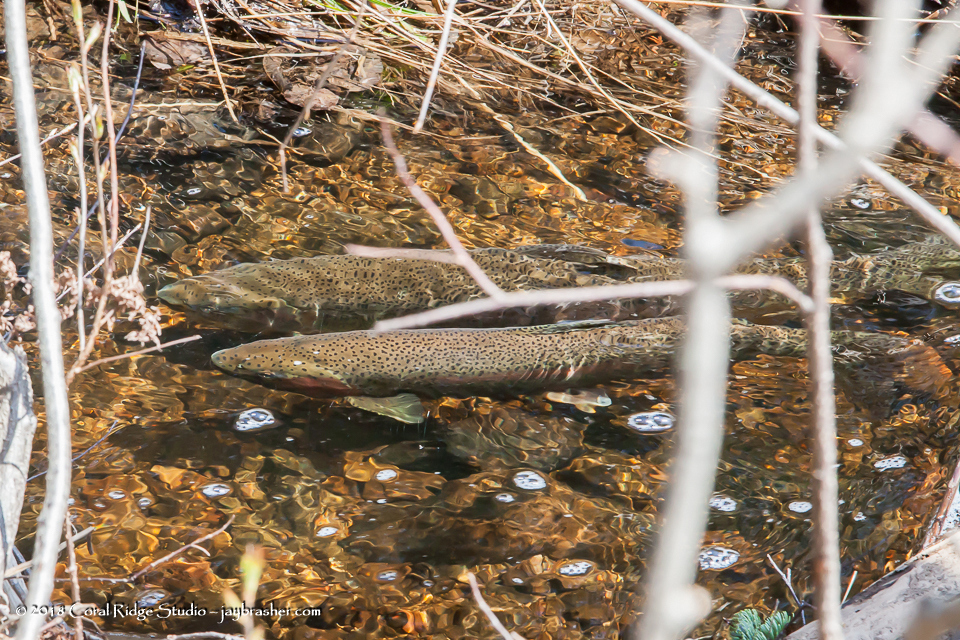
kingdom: Animalia
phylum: Chordata
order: Salmoniformes
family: Salmonidae
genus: Oncorhynchus
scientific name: Oncorhynchus mykiss
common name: Rainbow trout
